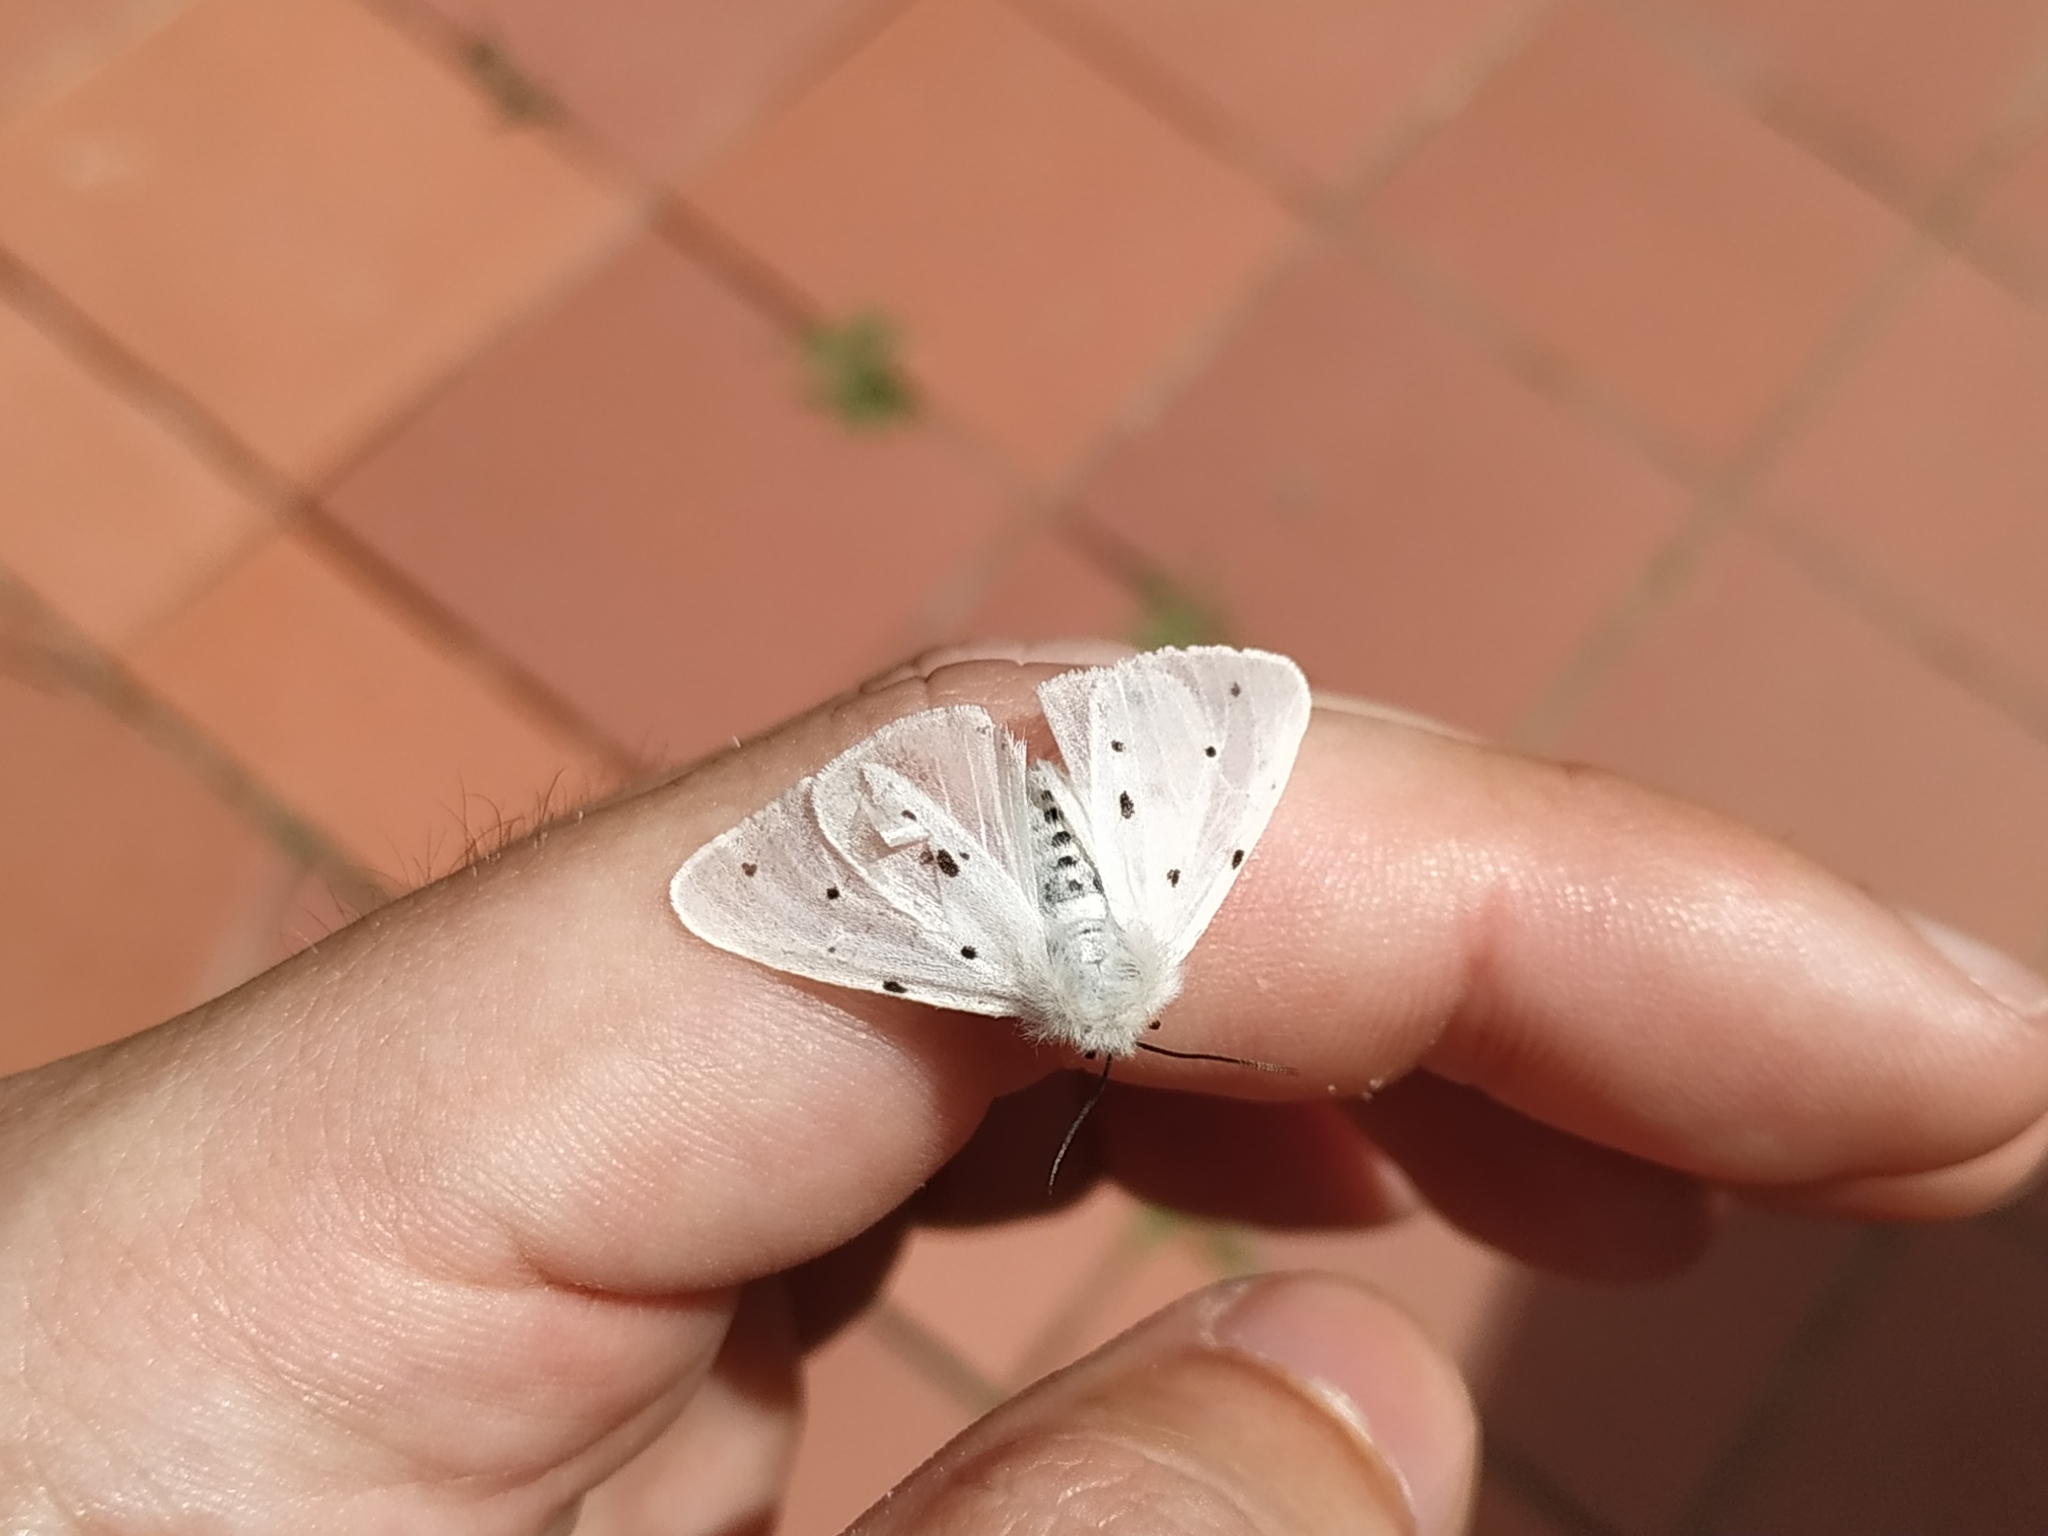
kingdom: Animalia
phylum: Arthropoda
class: Insecta
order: Lepidoptera
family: Erebidae
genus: Diaphora
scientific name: Diaphora mendica
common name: Muslin moth
